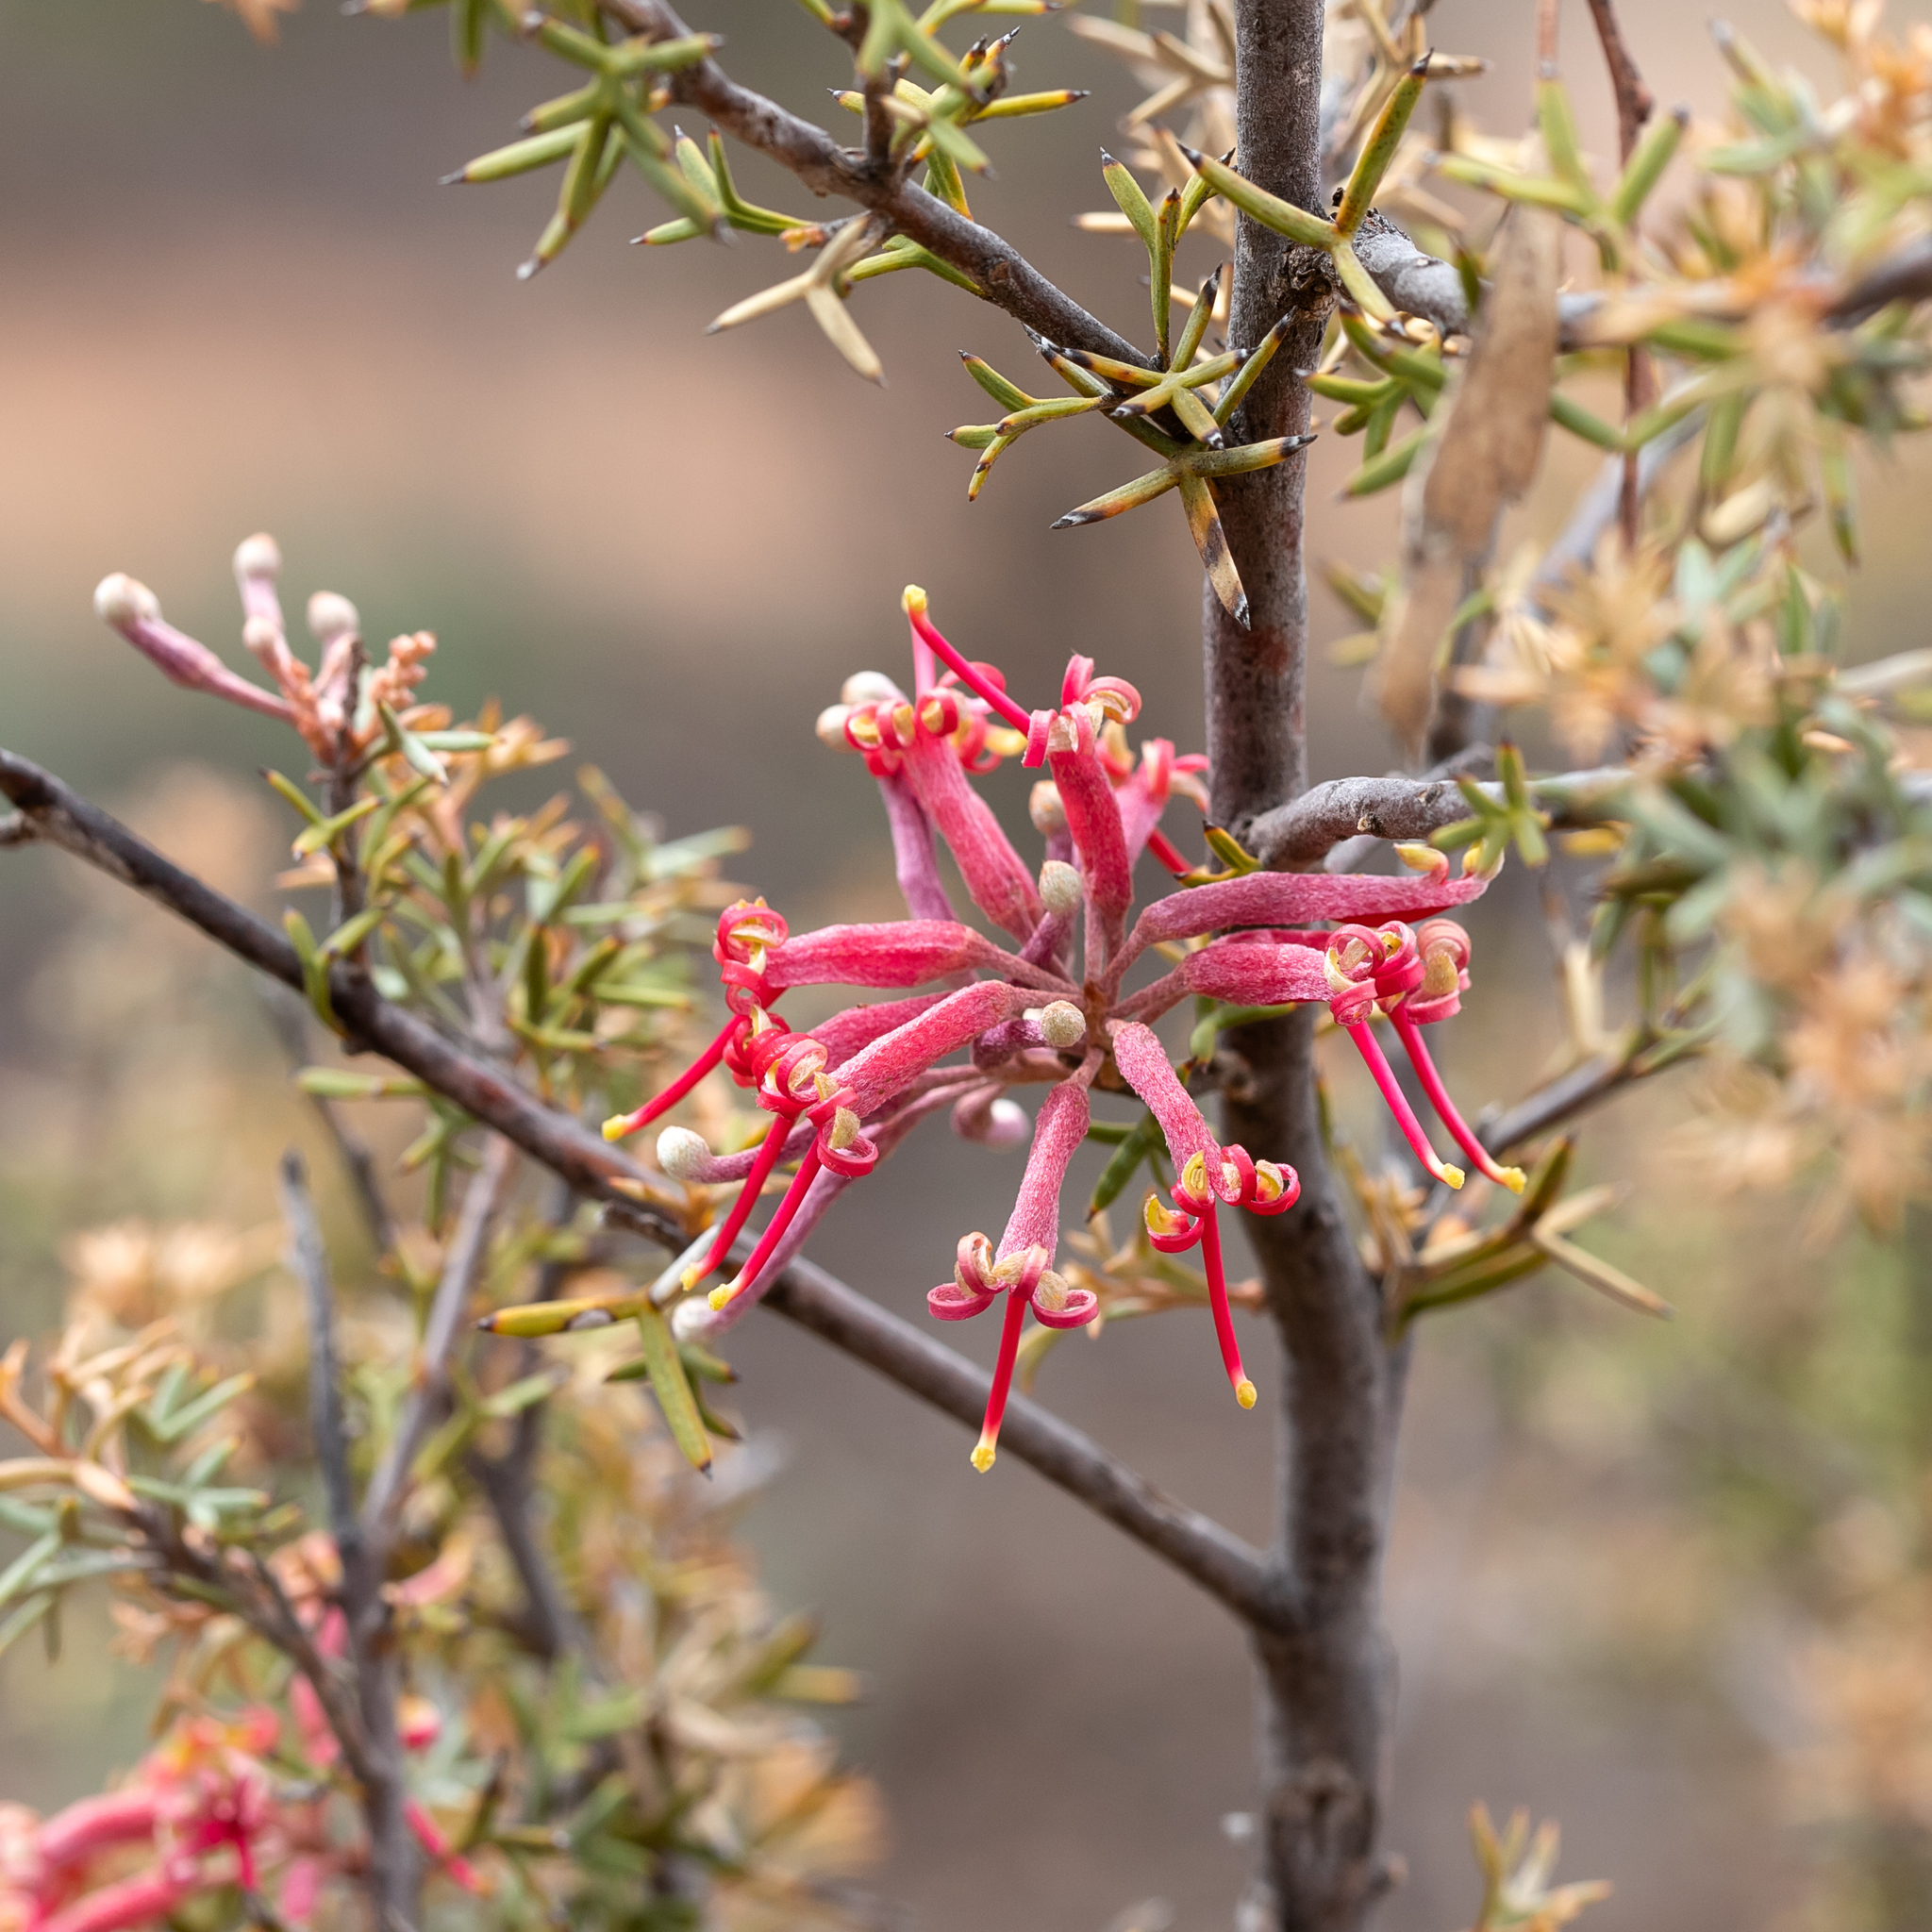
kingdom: Plantae
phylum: Tracheophyta
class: Magnoliopsida
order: Proteales
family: Proteaceae
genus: Grevillea
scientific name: Grevillea huegelii
